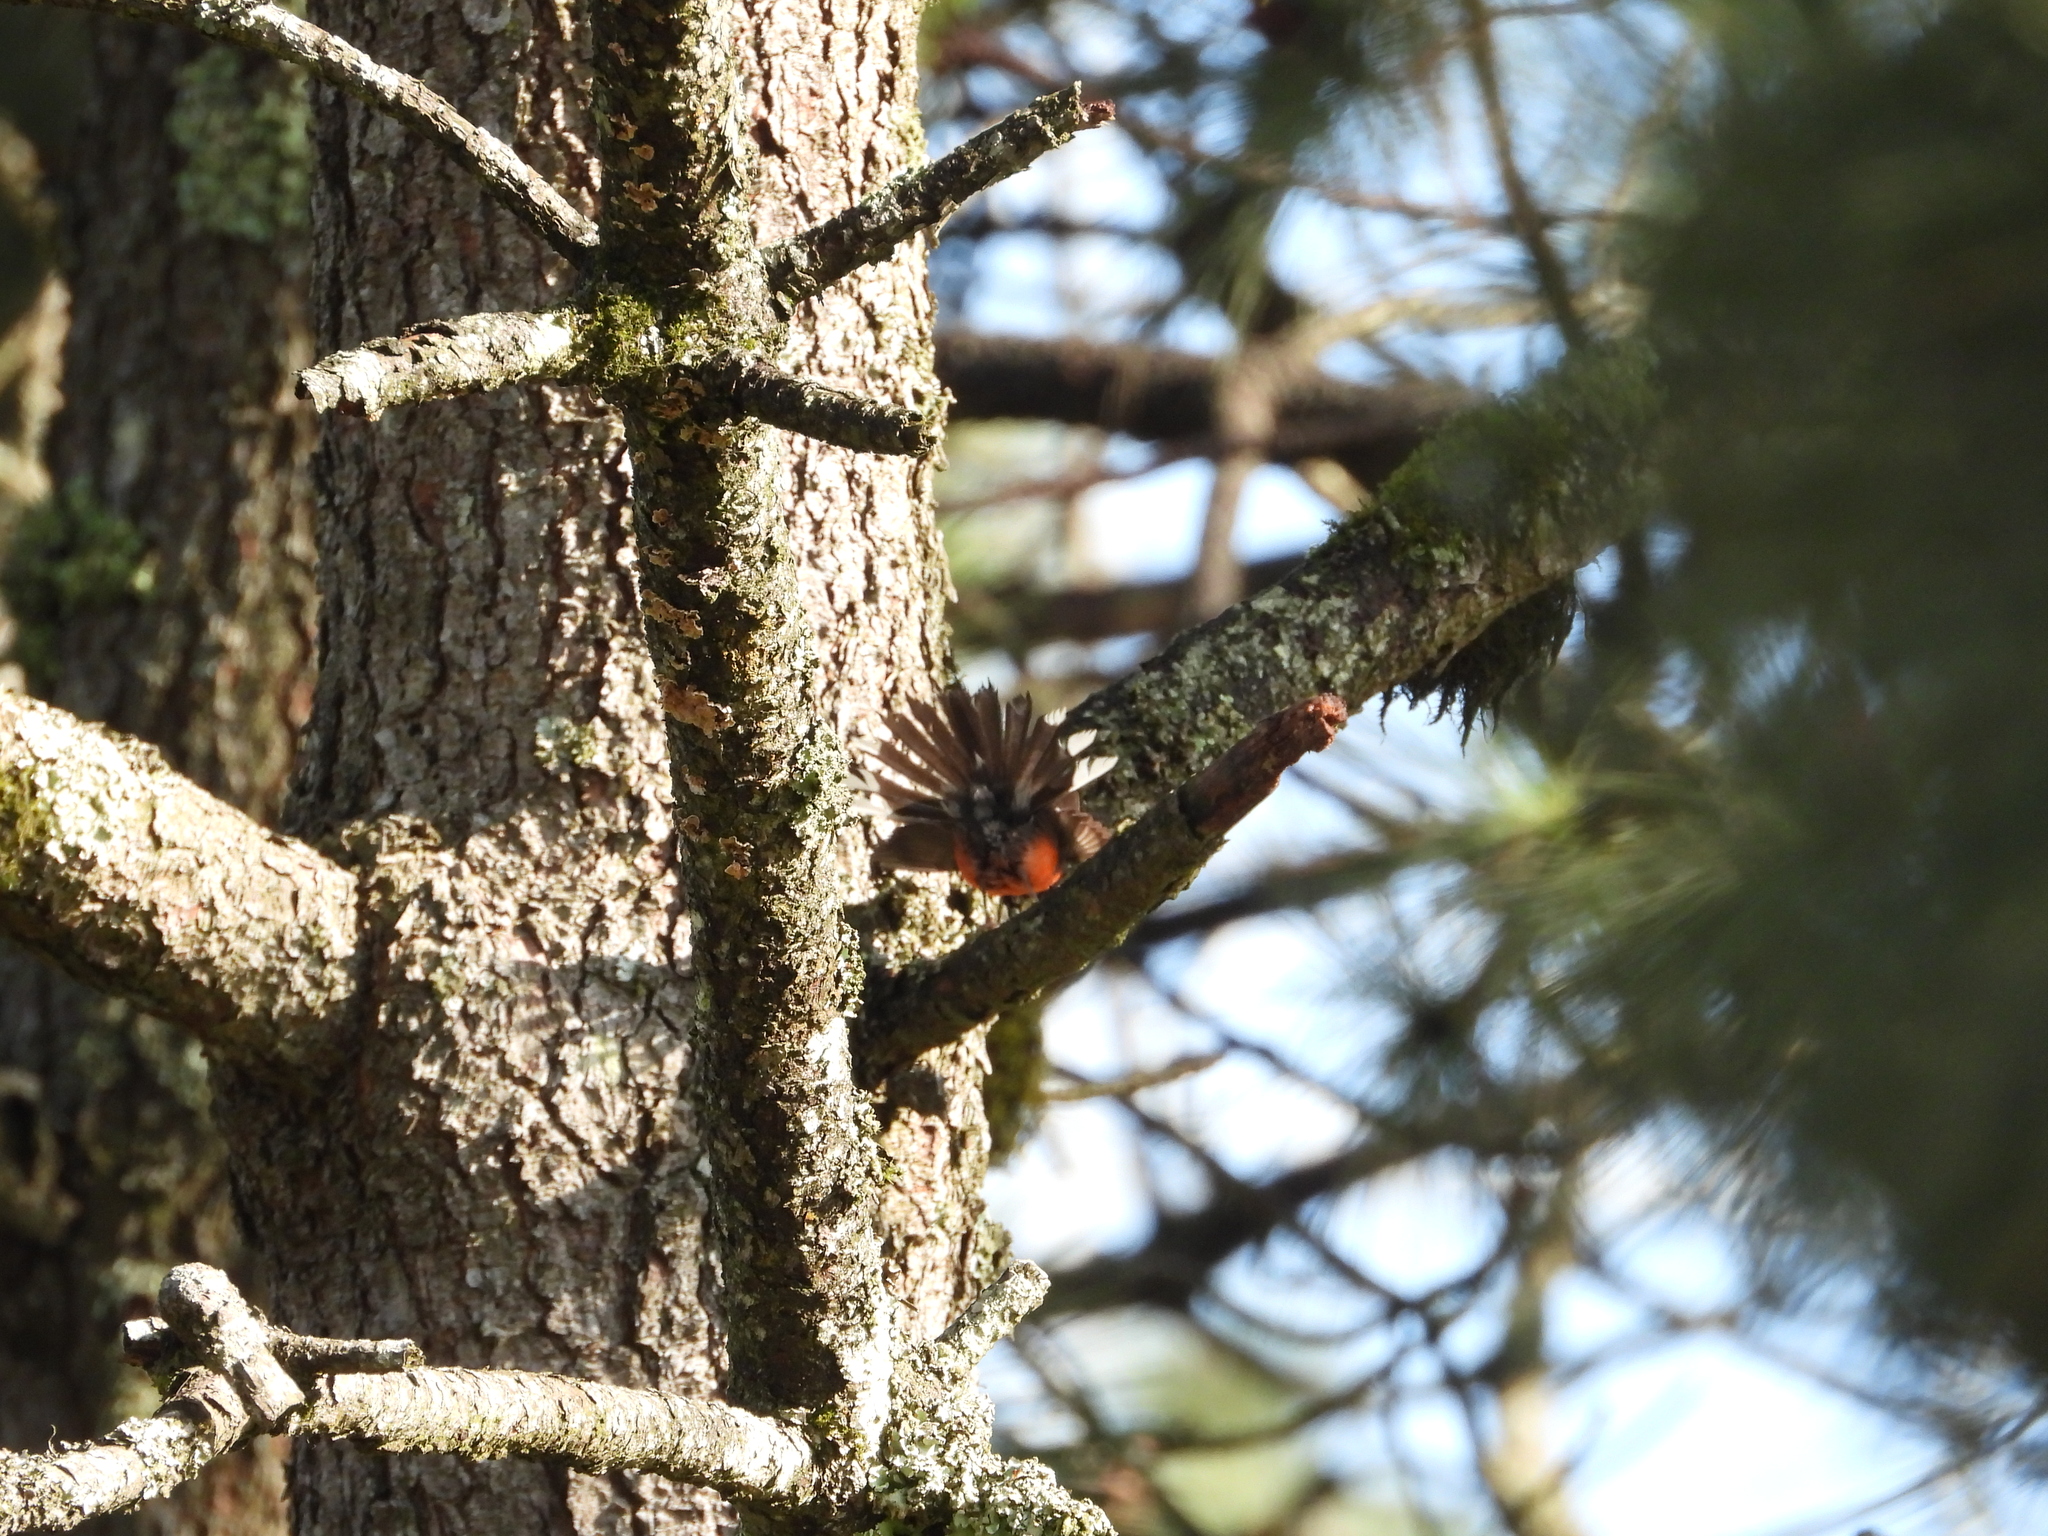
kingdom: Animalia
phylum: Chordata
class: Aves
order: Passeriformes
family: Parulidae
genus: Myioborus
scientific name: Myioborus miniatus
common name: Slate-throated redstart
